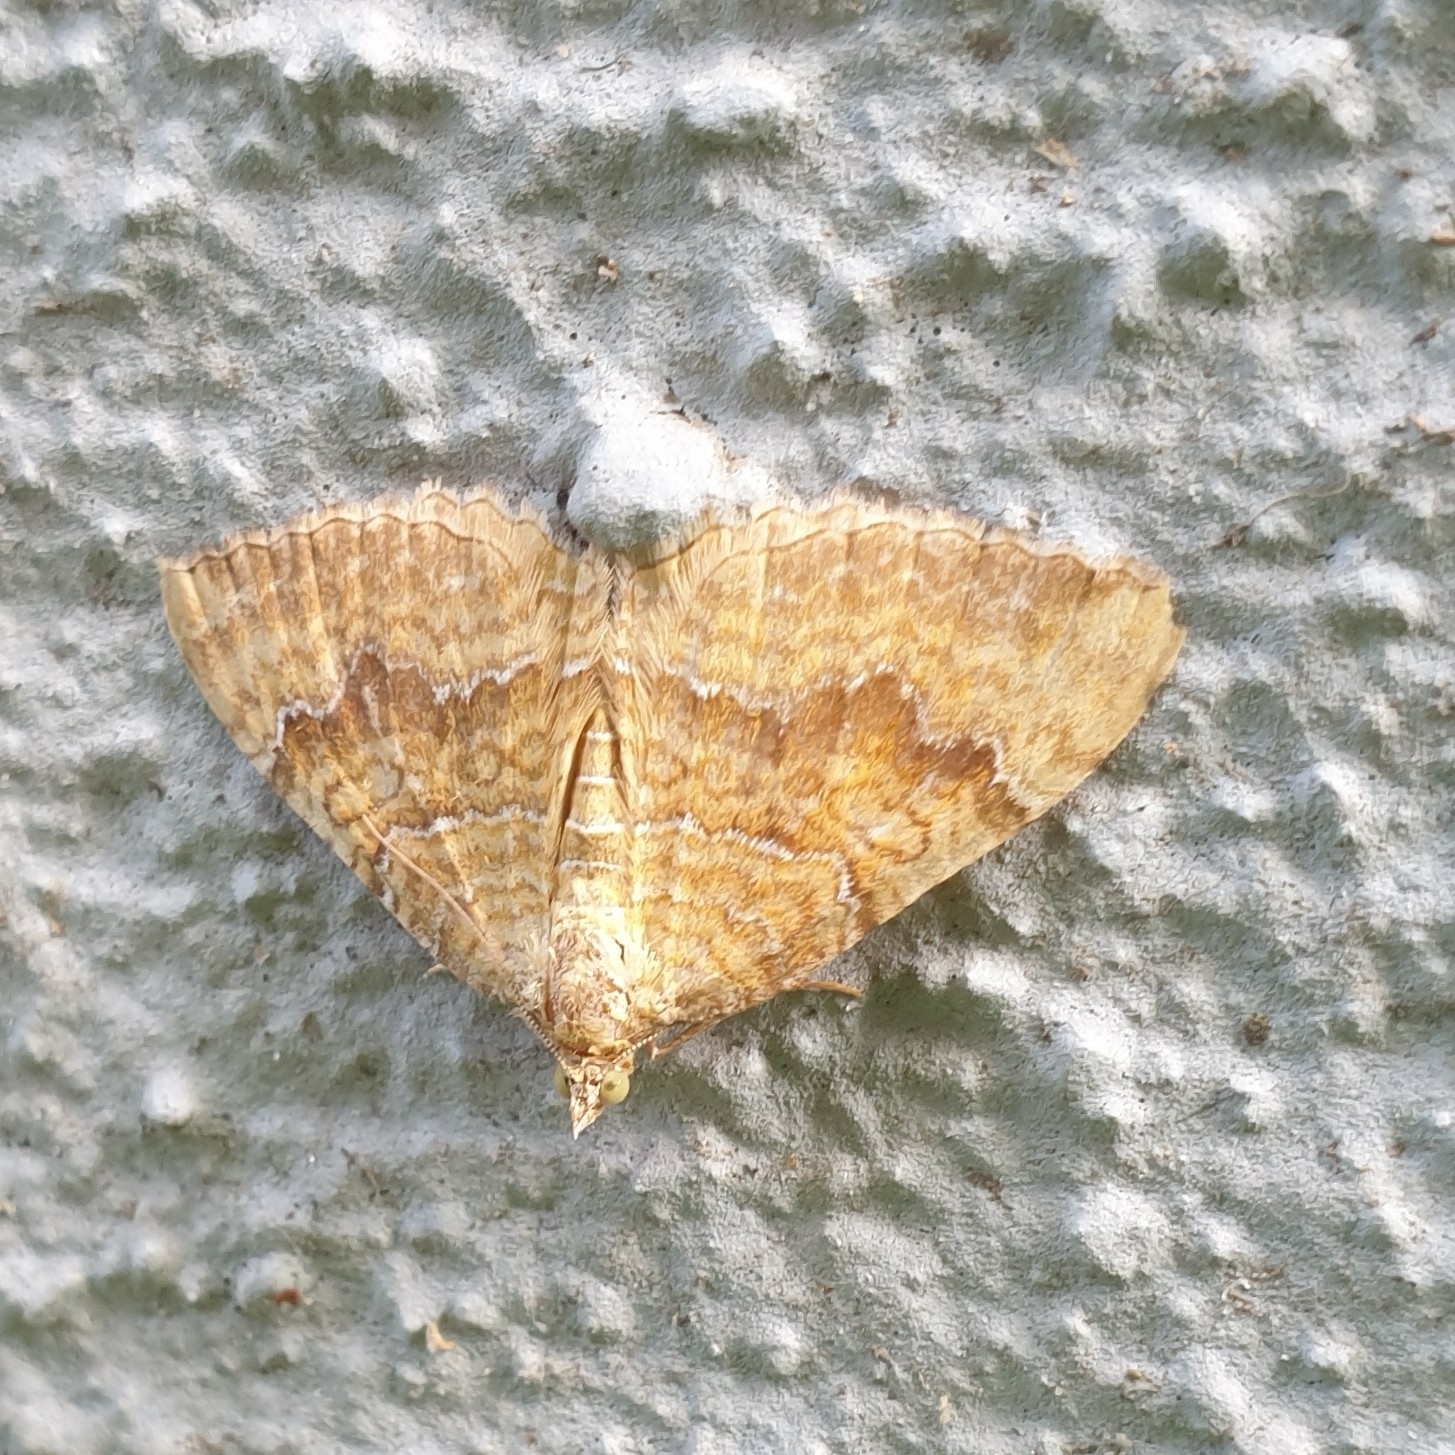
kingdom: Animalia
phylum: Arthropoda
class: Insecta
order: Lepidoptera
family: Geometridae
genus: Camptogramma
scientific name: Camptogramma bilineata
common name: Yellow shell
